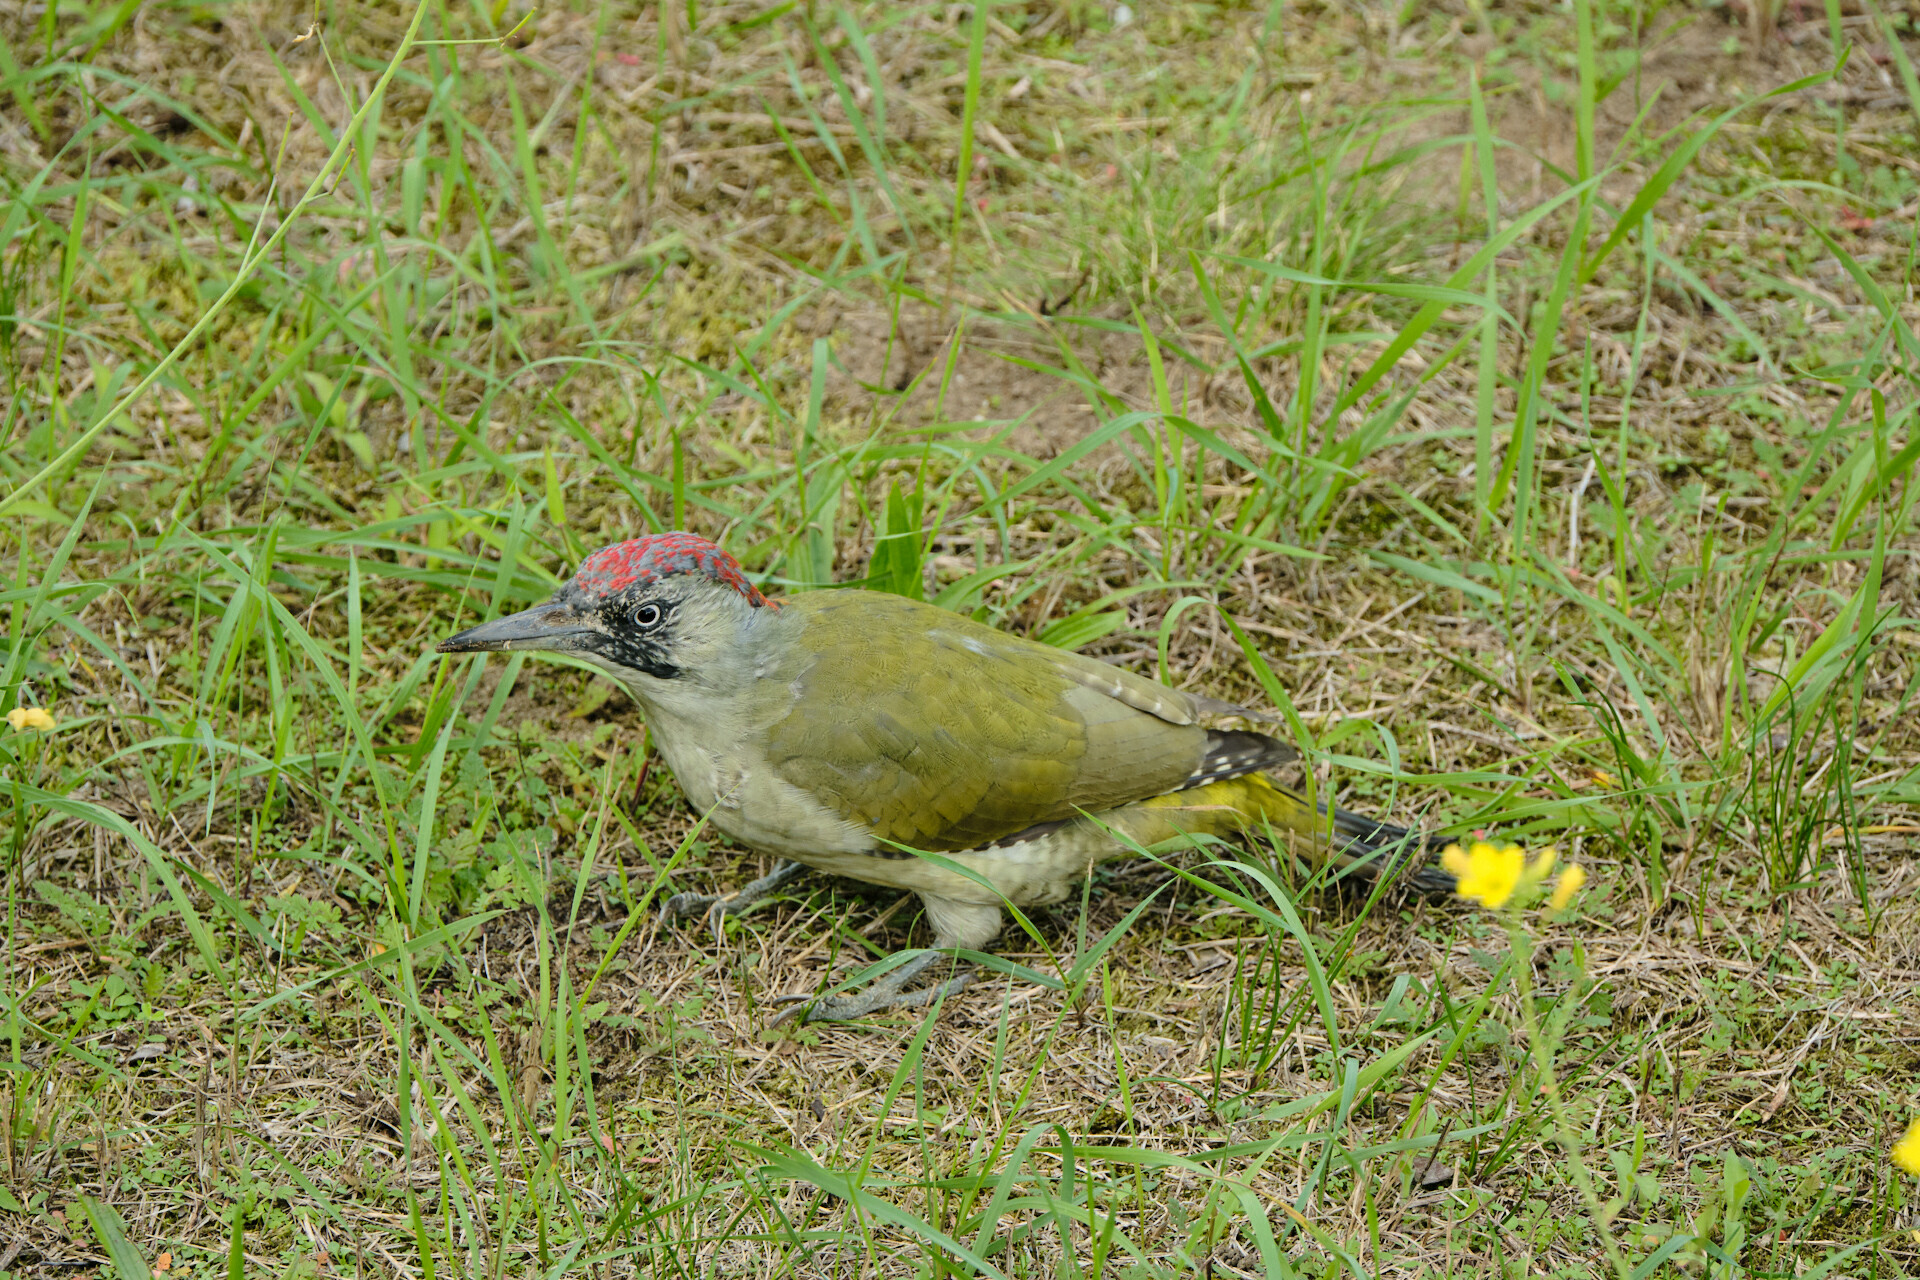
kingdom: Animalia
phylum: Chordata
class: Aves
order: Piciformes
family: Picidae
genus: Picus
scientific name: Picus viridis
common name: European green woodpecker
